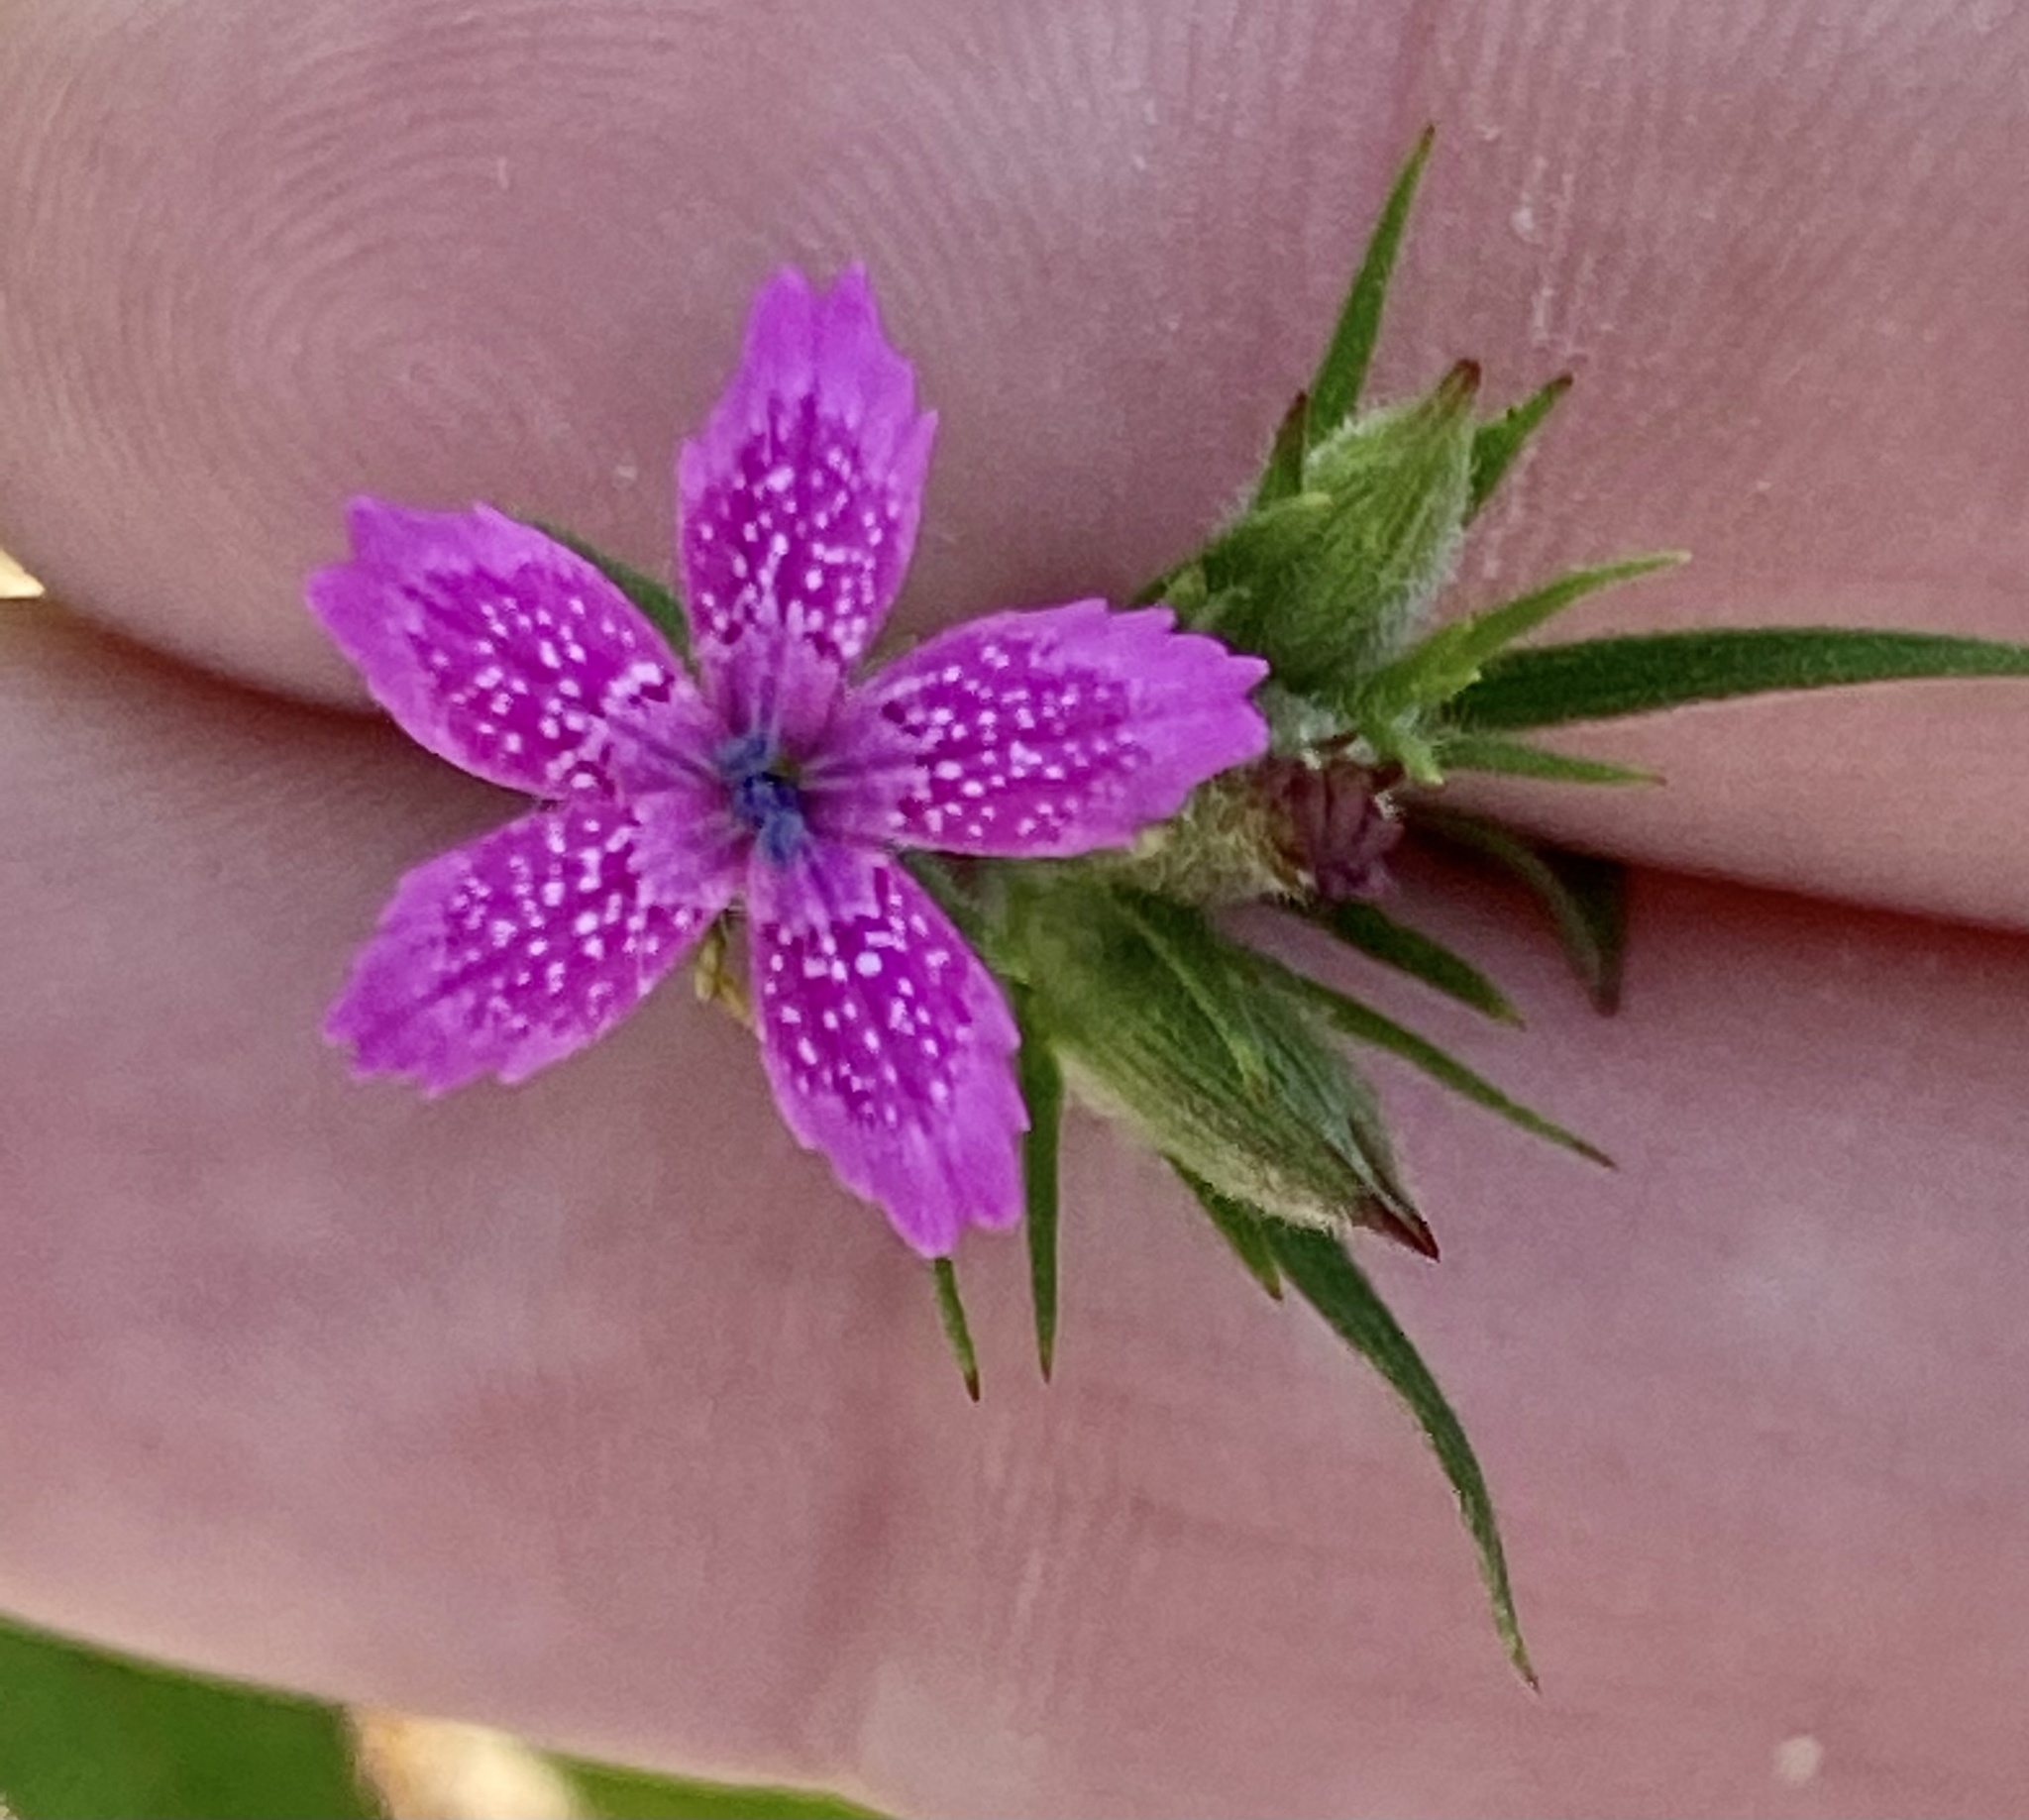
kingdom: Plantae
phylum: Tracheophyta
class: Magnoliopsida
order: Caryophyllales
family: Caryophyllaceae
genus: Dianthus
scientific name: Dianthus armeria
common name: Deptford pink
